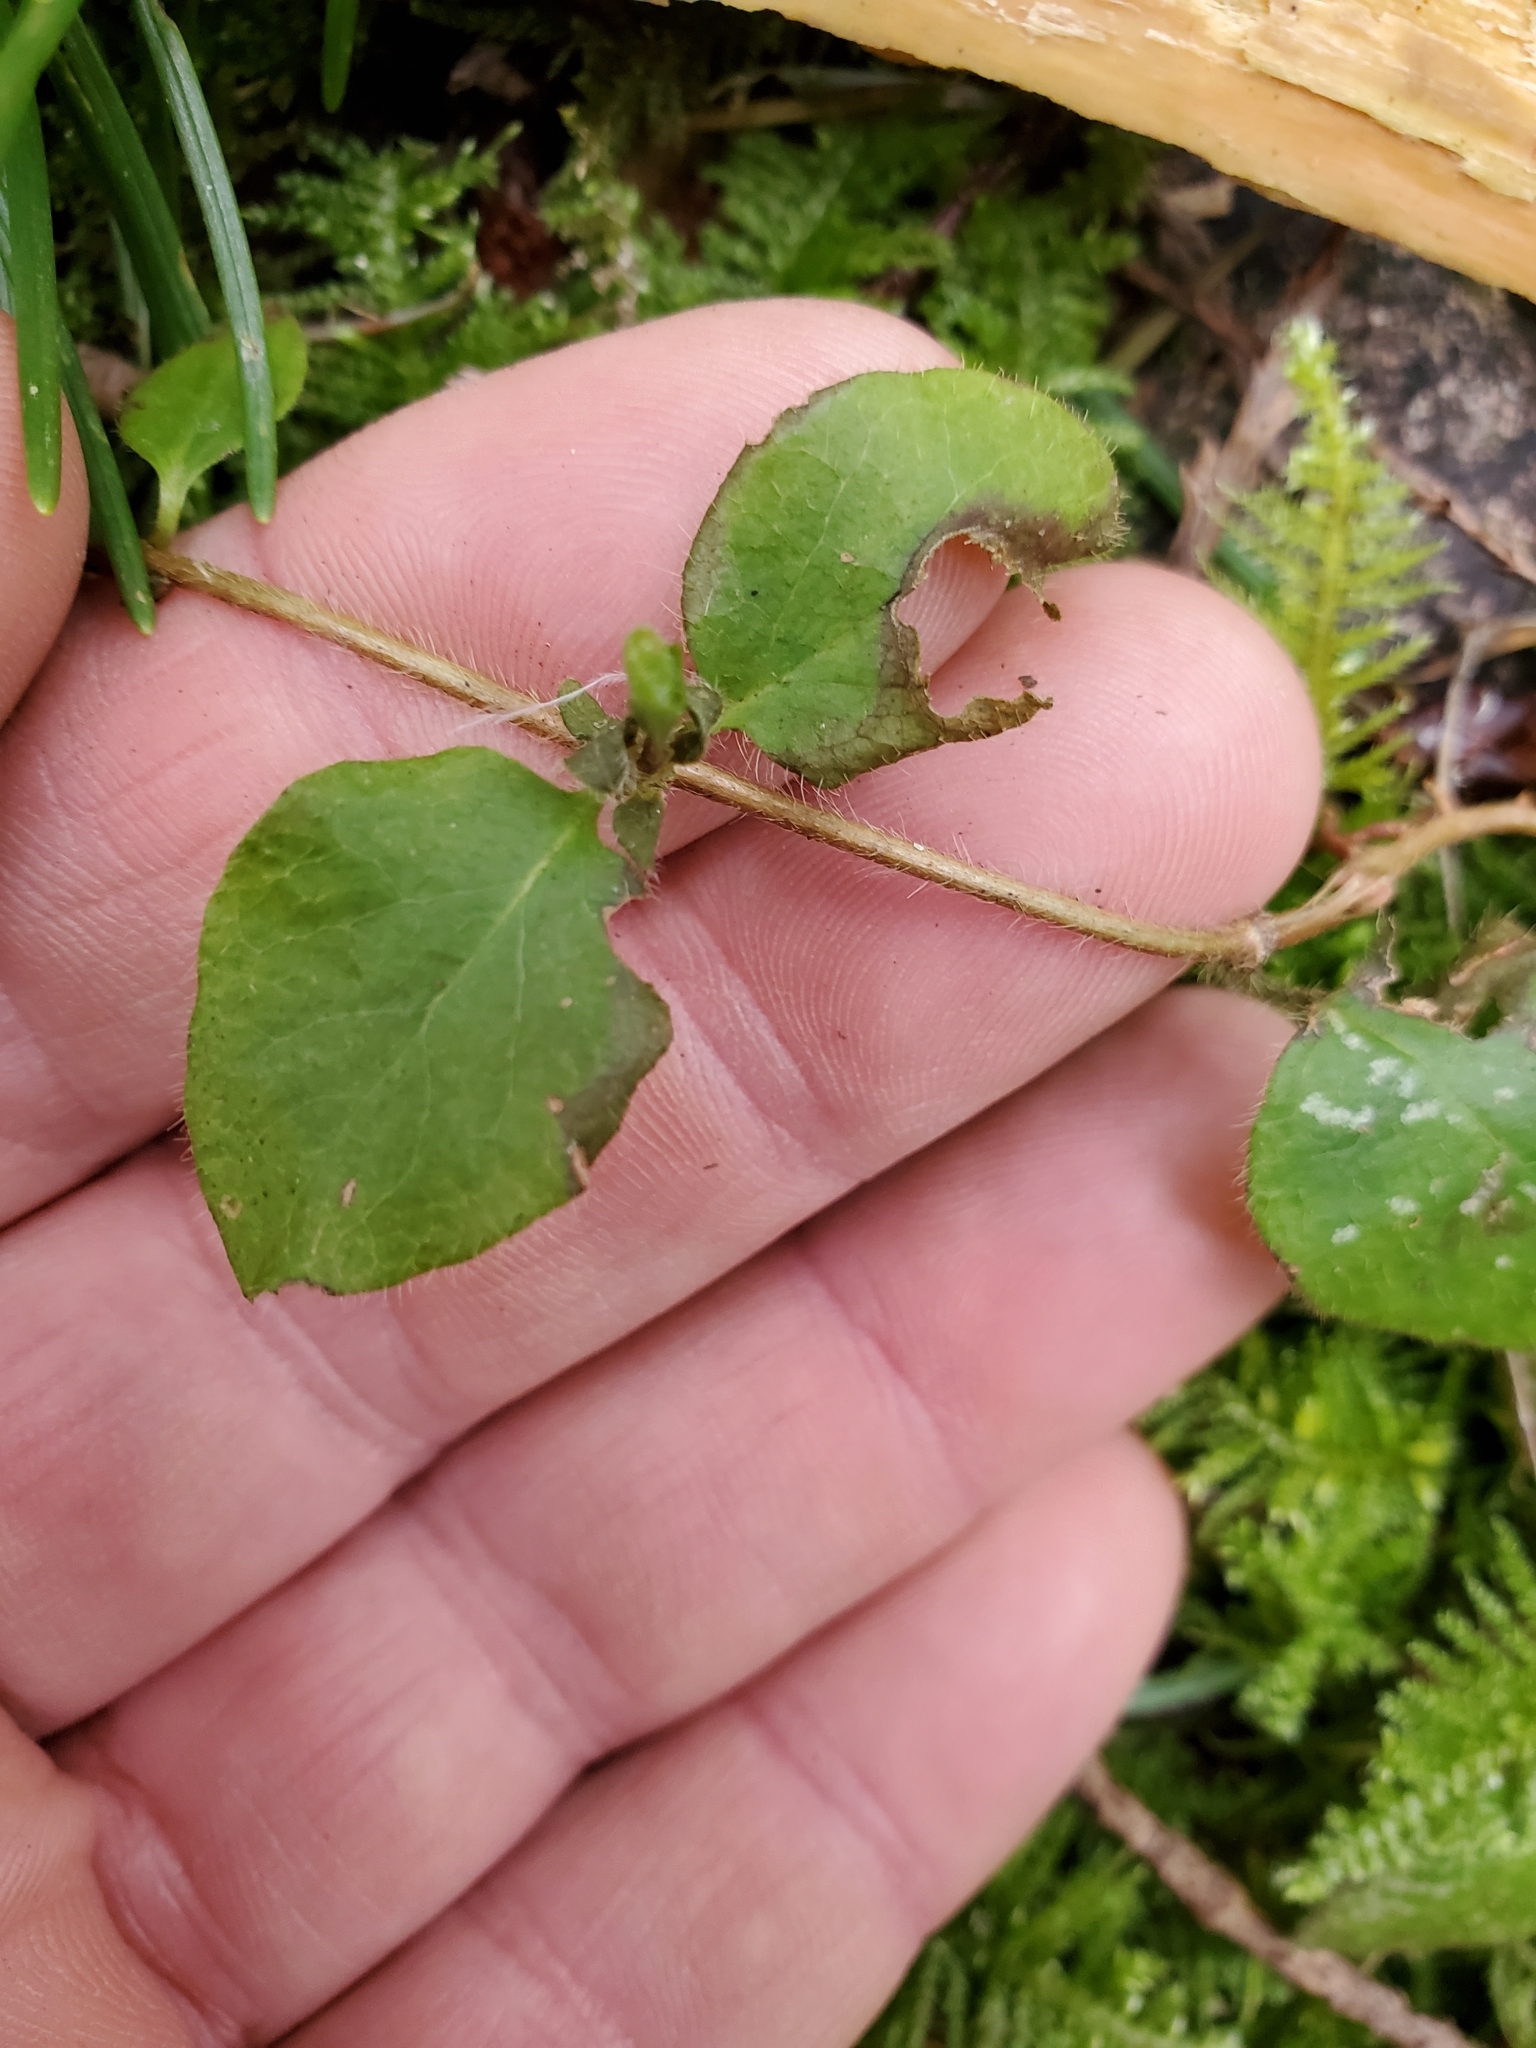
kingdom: Plantae
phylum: Tracheophyta
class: Magnoliopsida
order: Dipsacales
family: Caprifoliaceae
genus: Lonicera
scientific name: Lonicera hispidula
